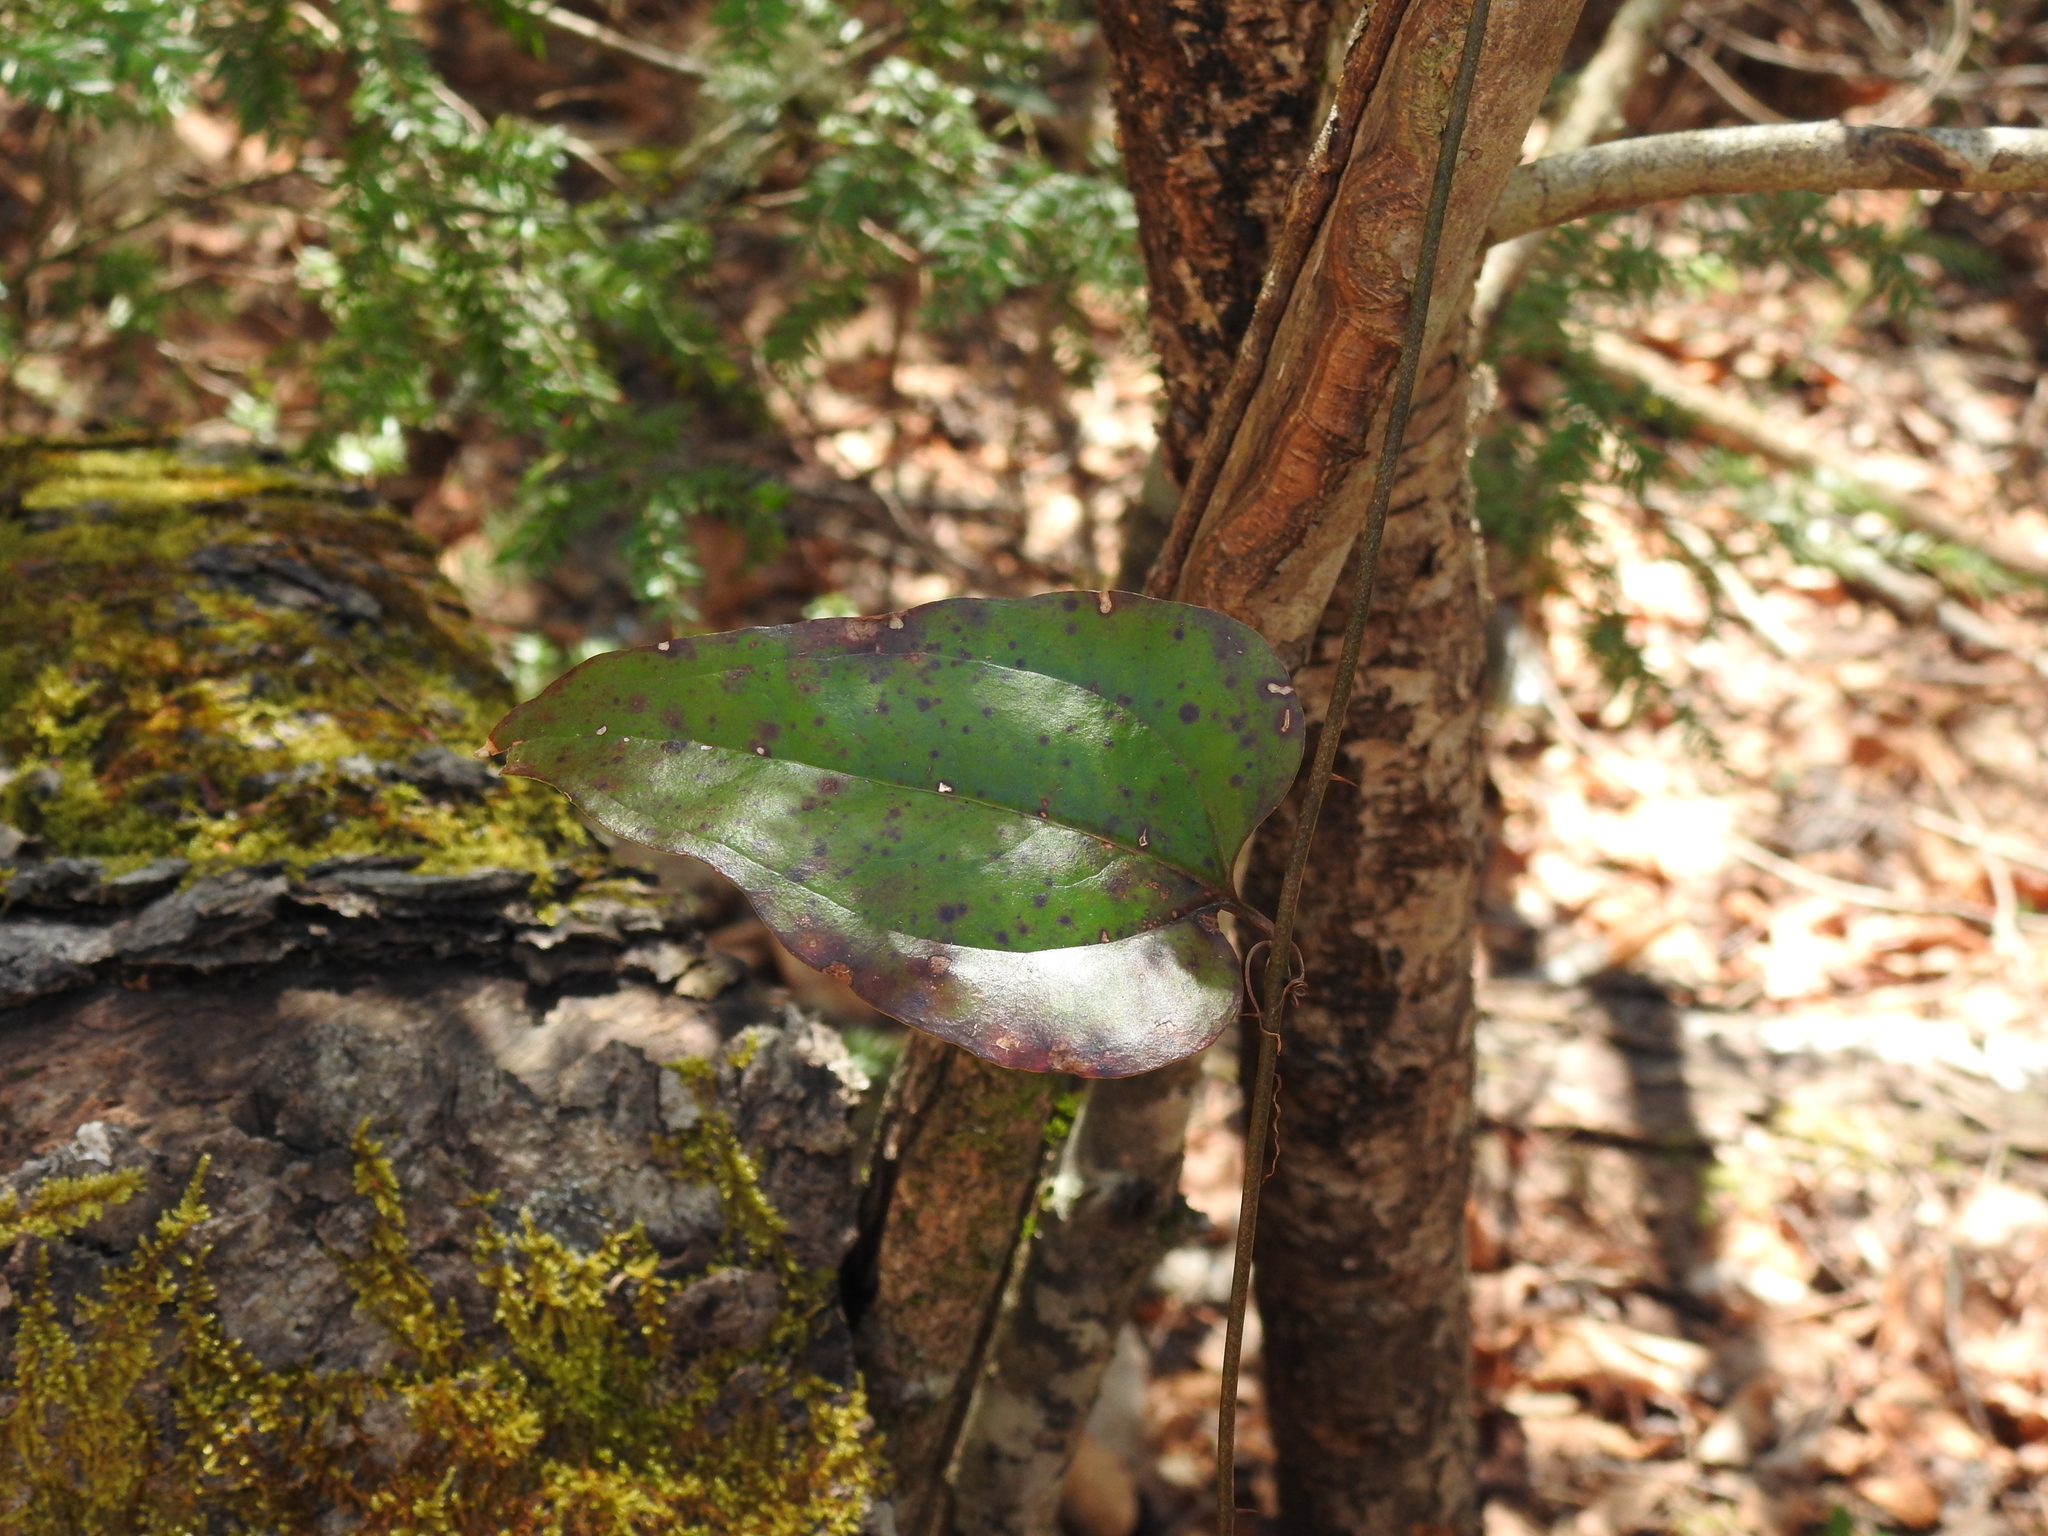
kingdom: Plantae
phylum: Tracheophyta
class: Liliopsida
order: Liliales
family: Smilacaceae
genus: Smilax
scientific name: Smilax glauca
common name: Cat greenbrier
